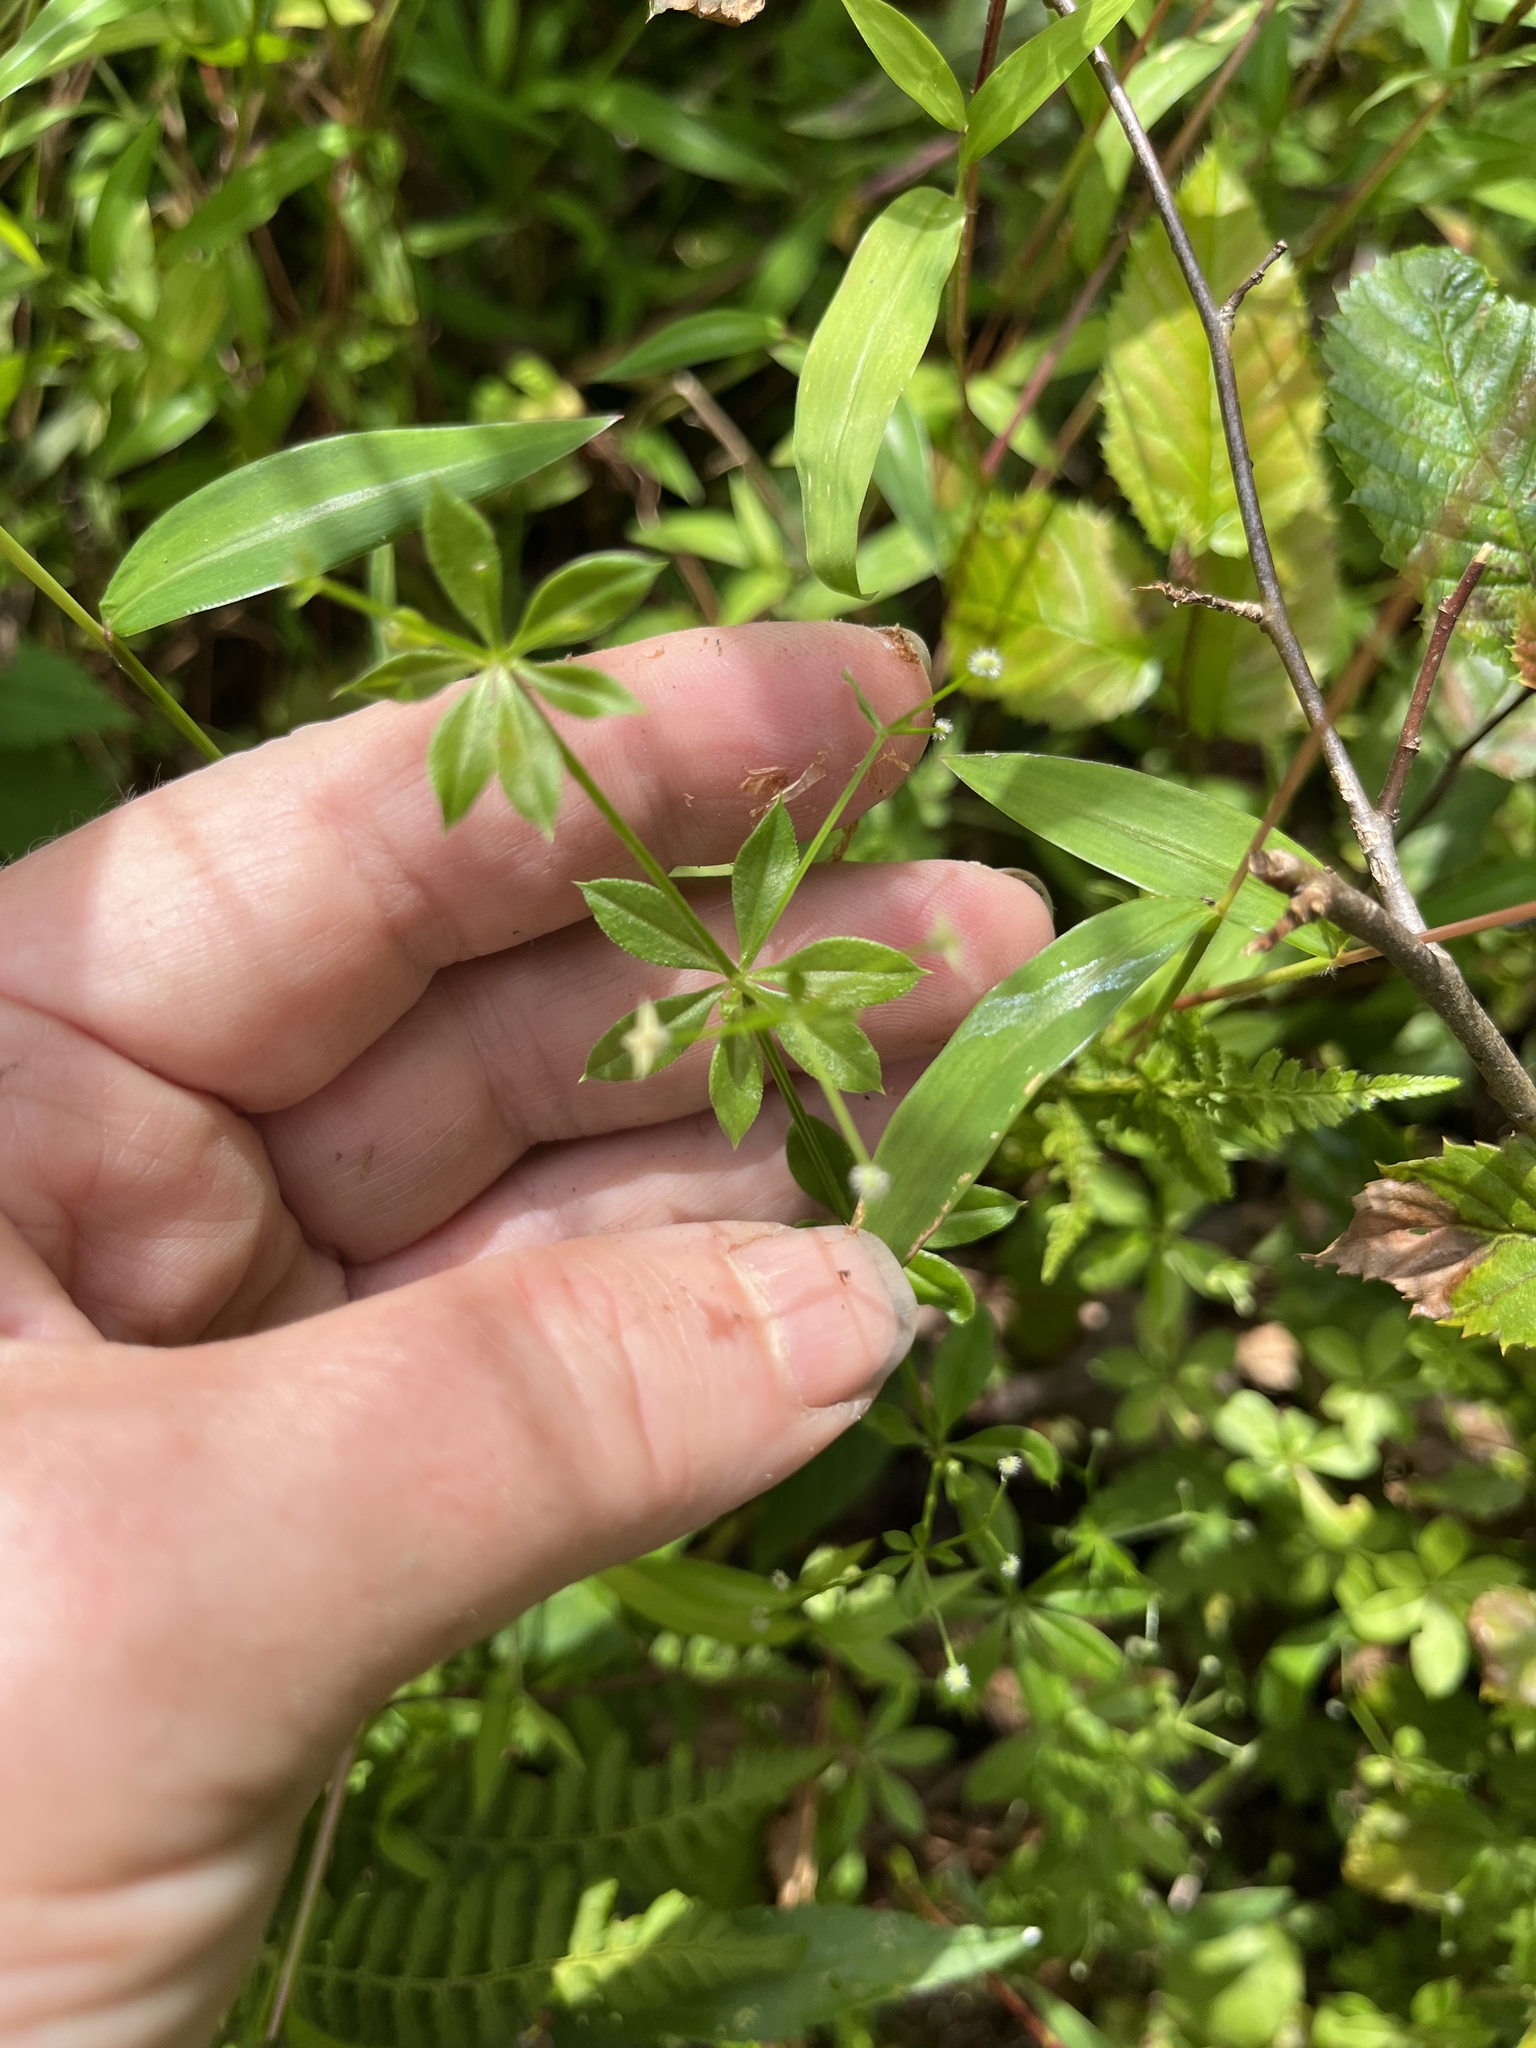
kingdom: Plantae
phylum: Tracheophyta
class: Magnoliopsida
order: Gentianales
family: Rubiaceae
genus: Galium
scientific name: Galium triflorum
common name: Fragrant bedstraw
